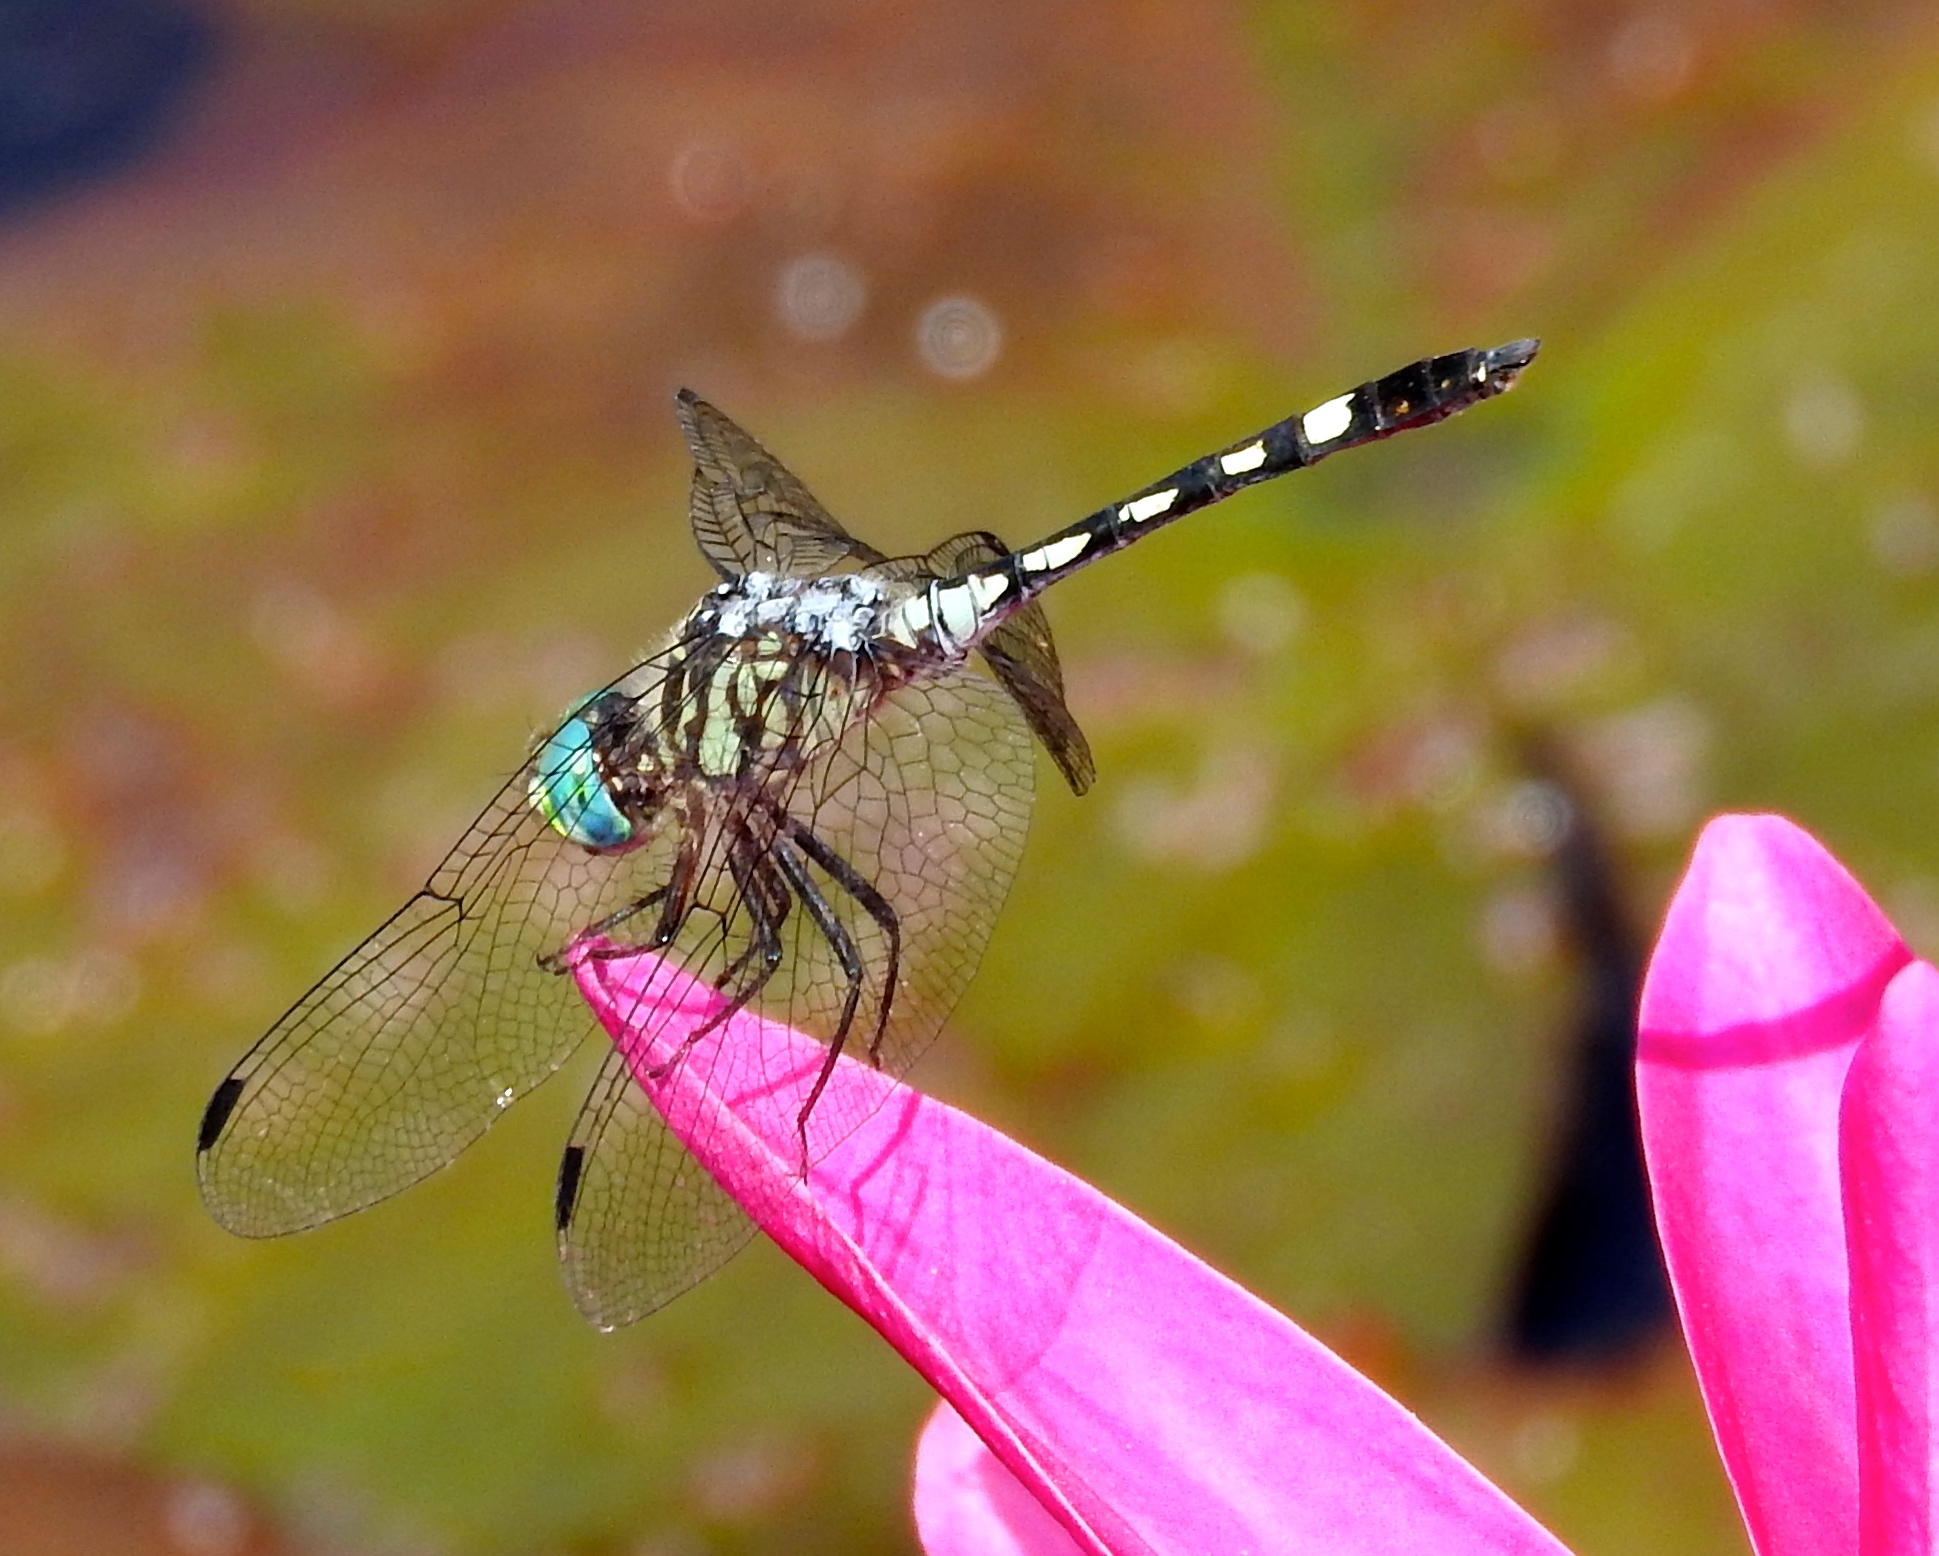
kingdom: Animalia
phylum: Arthropoda
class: Insecta
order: Odonata
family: Libellulidae
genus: Micrathyria
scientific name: Micrathyria hagenii
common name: Thornbush dasher
